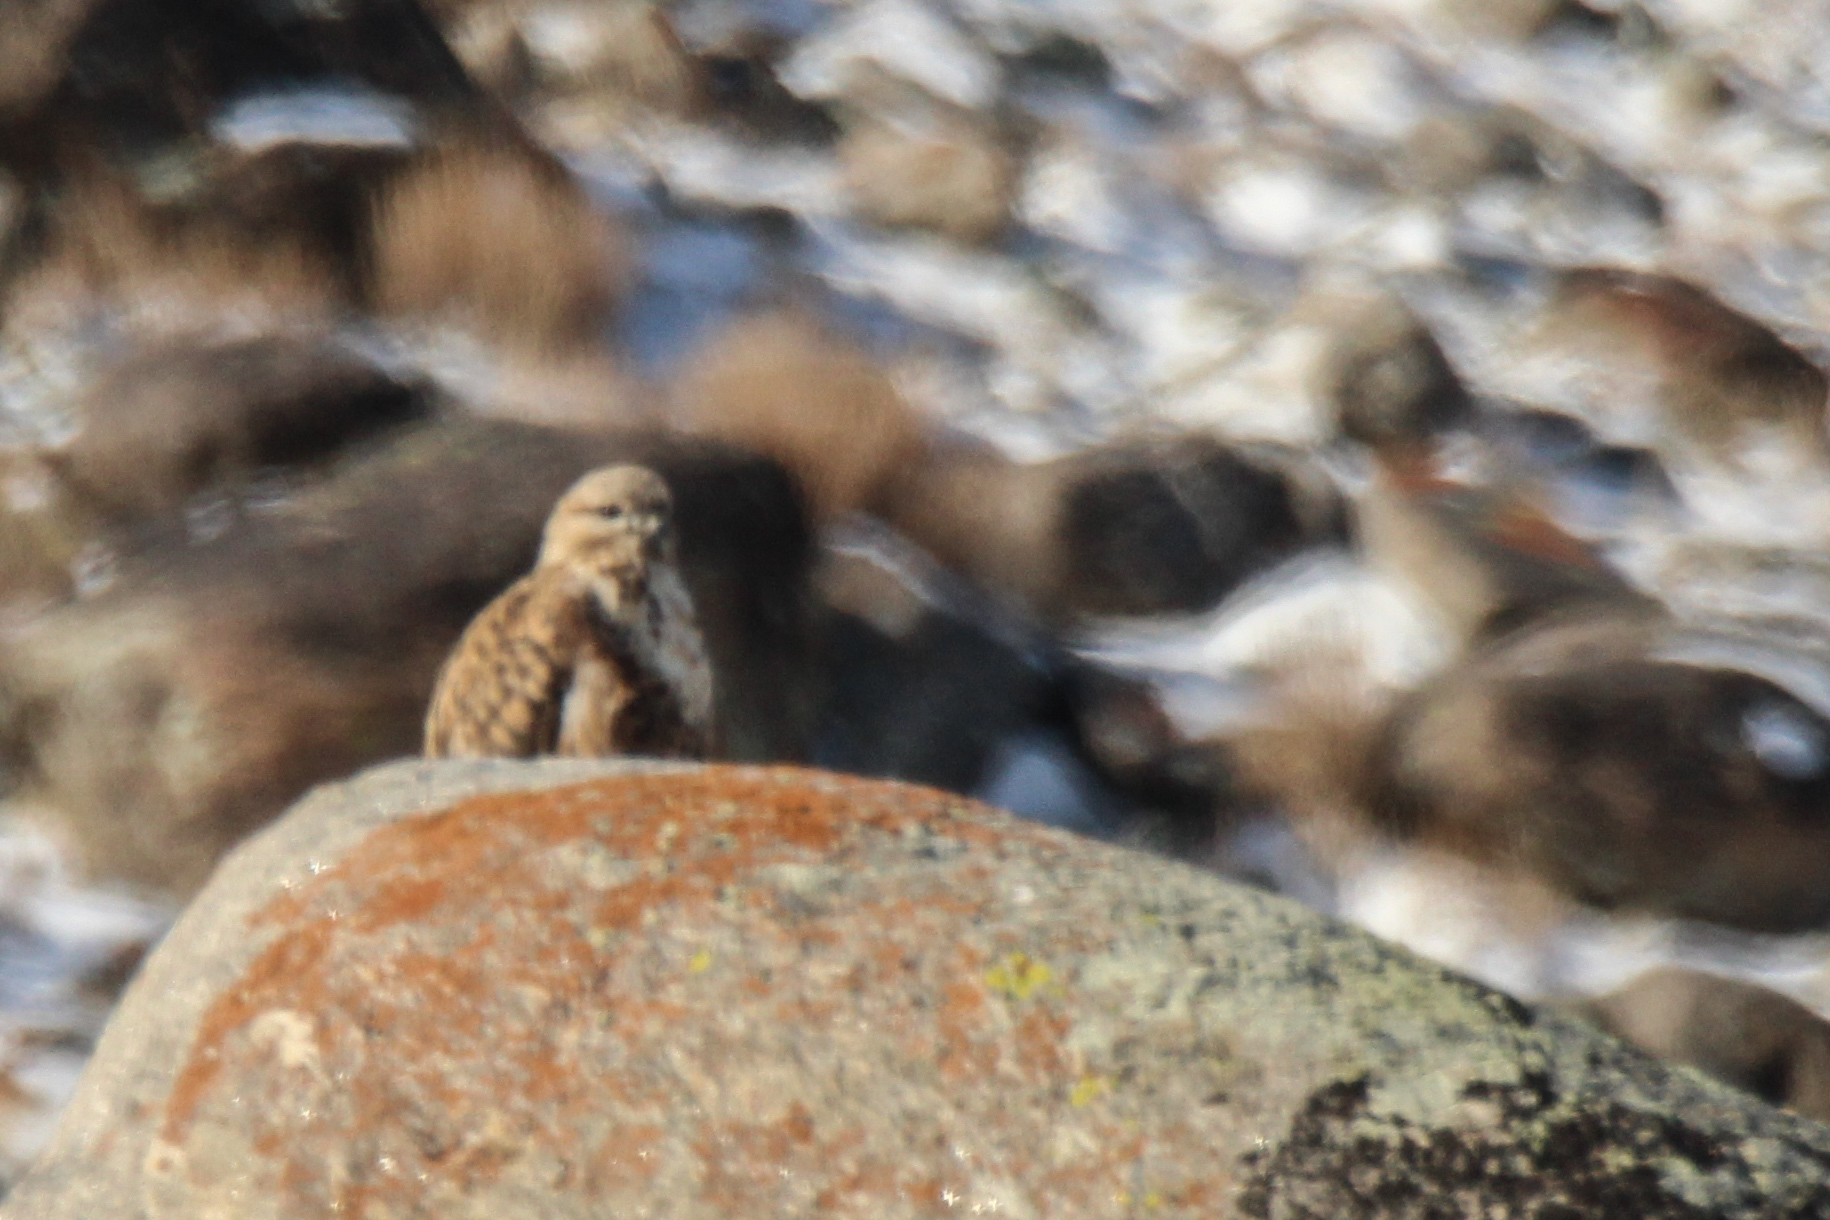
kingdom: Animalia
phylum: Chordata
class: Aves
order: Accipitriformes
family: Accipitridae
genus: Buteo
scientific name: Buteo hemilasius
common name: Upland buzzard
